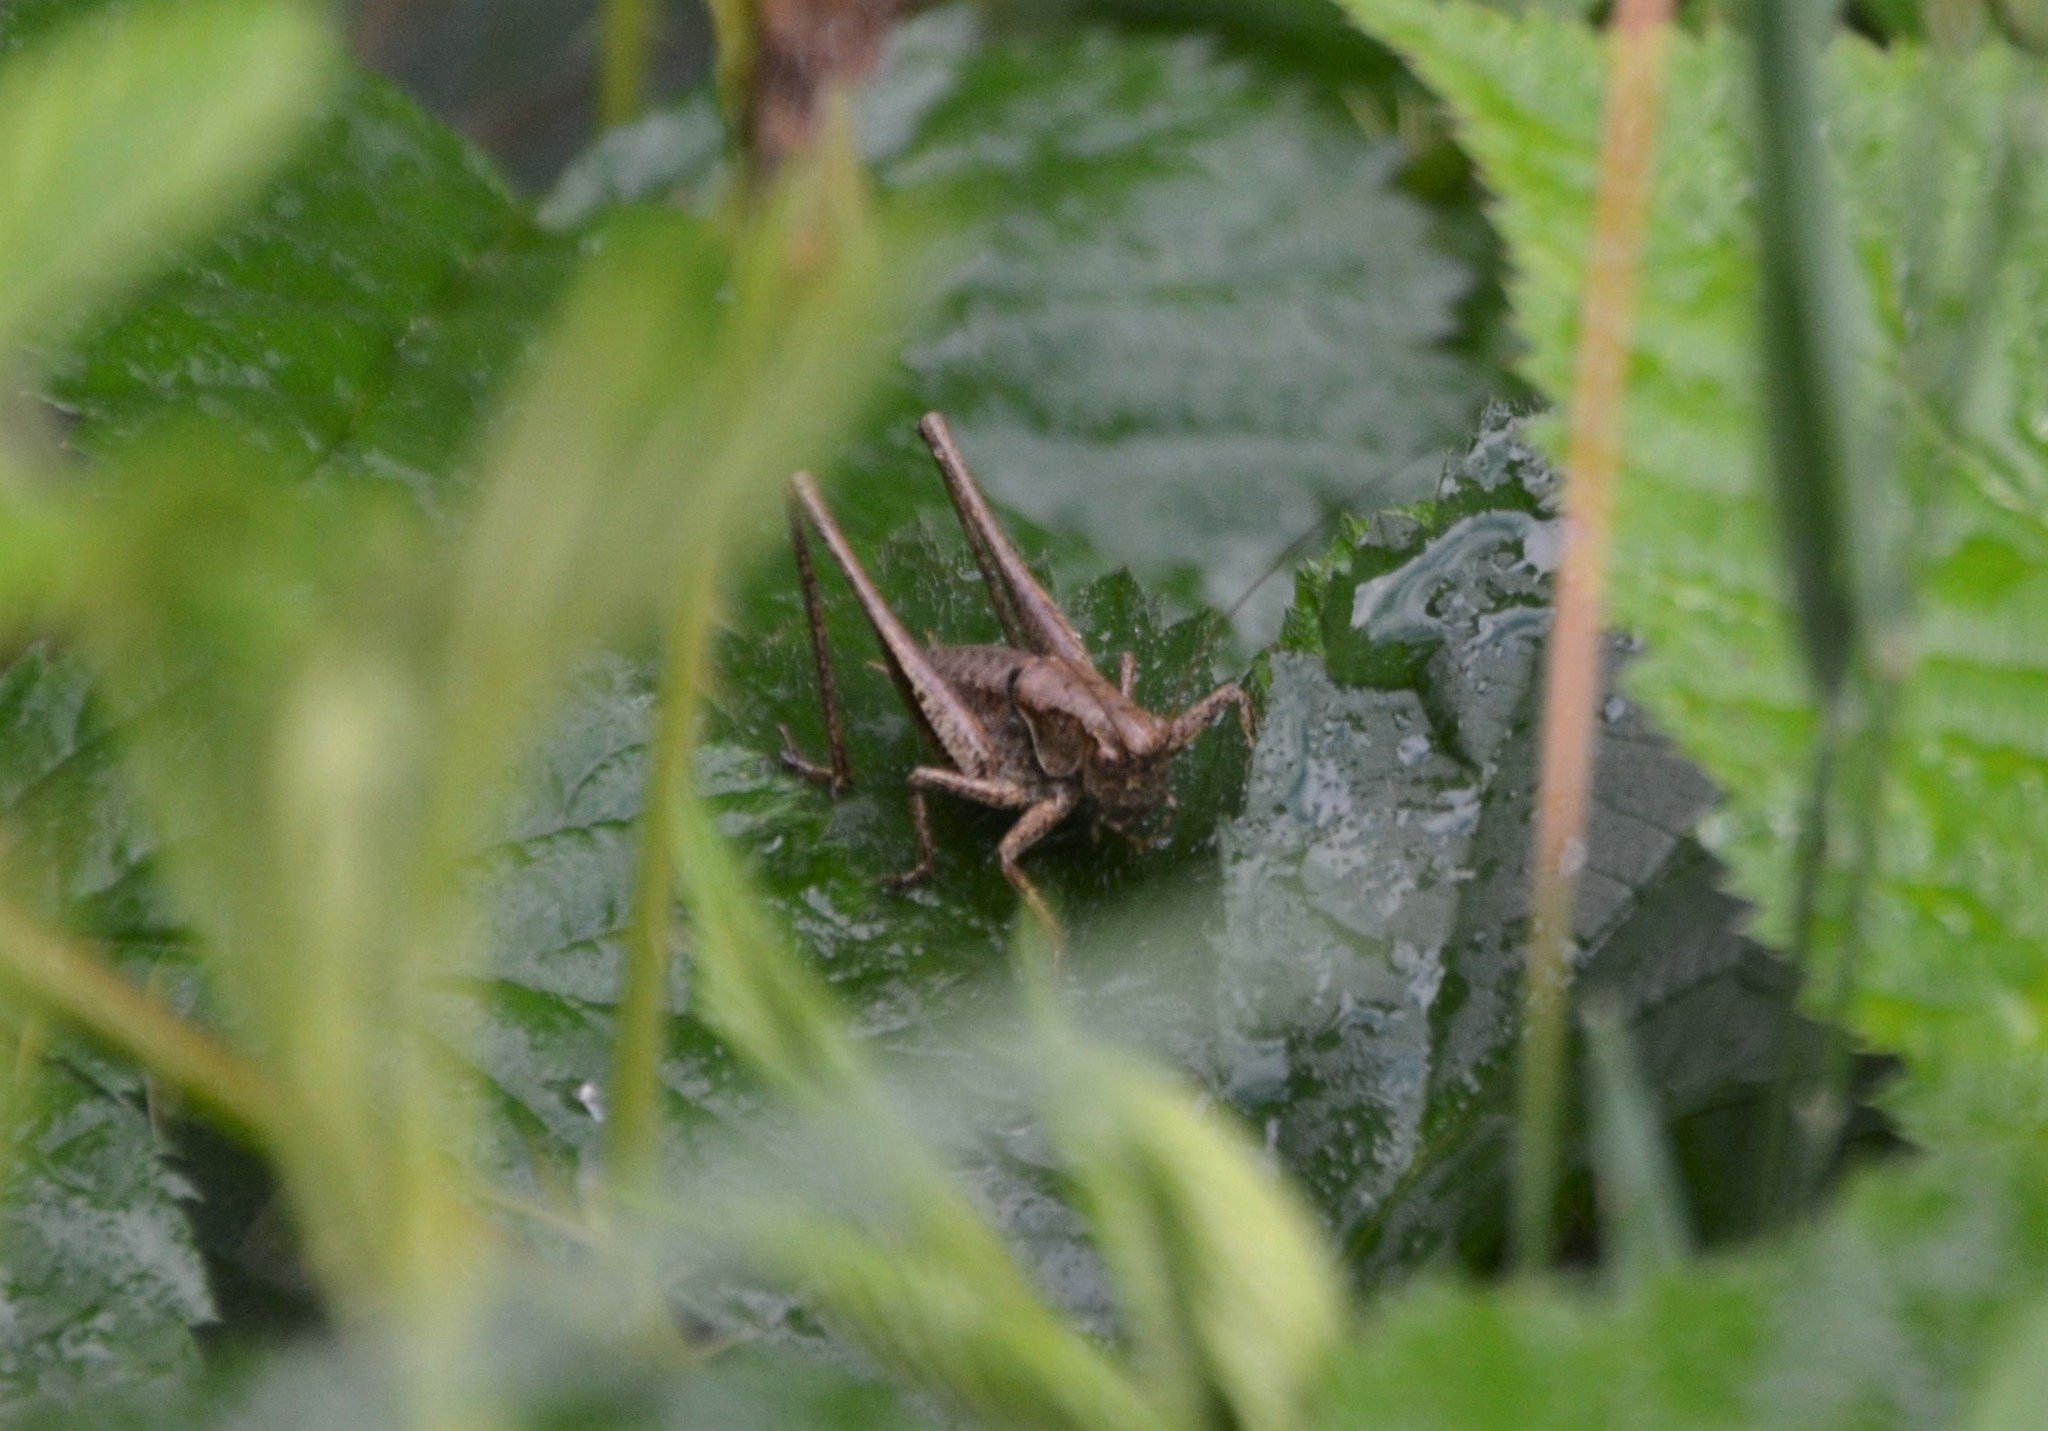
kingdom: Animalia
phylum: Arthropoda
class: Insecta
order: Orthoptera
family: Tettigoniidae
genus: Pholidoptera
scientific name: Pholidoptera griseoaptera
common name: Dark bush-cricket
